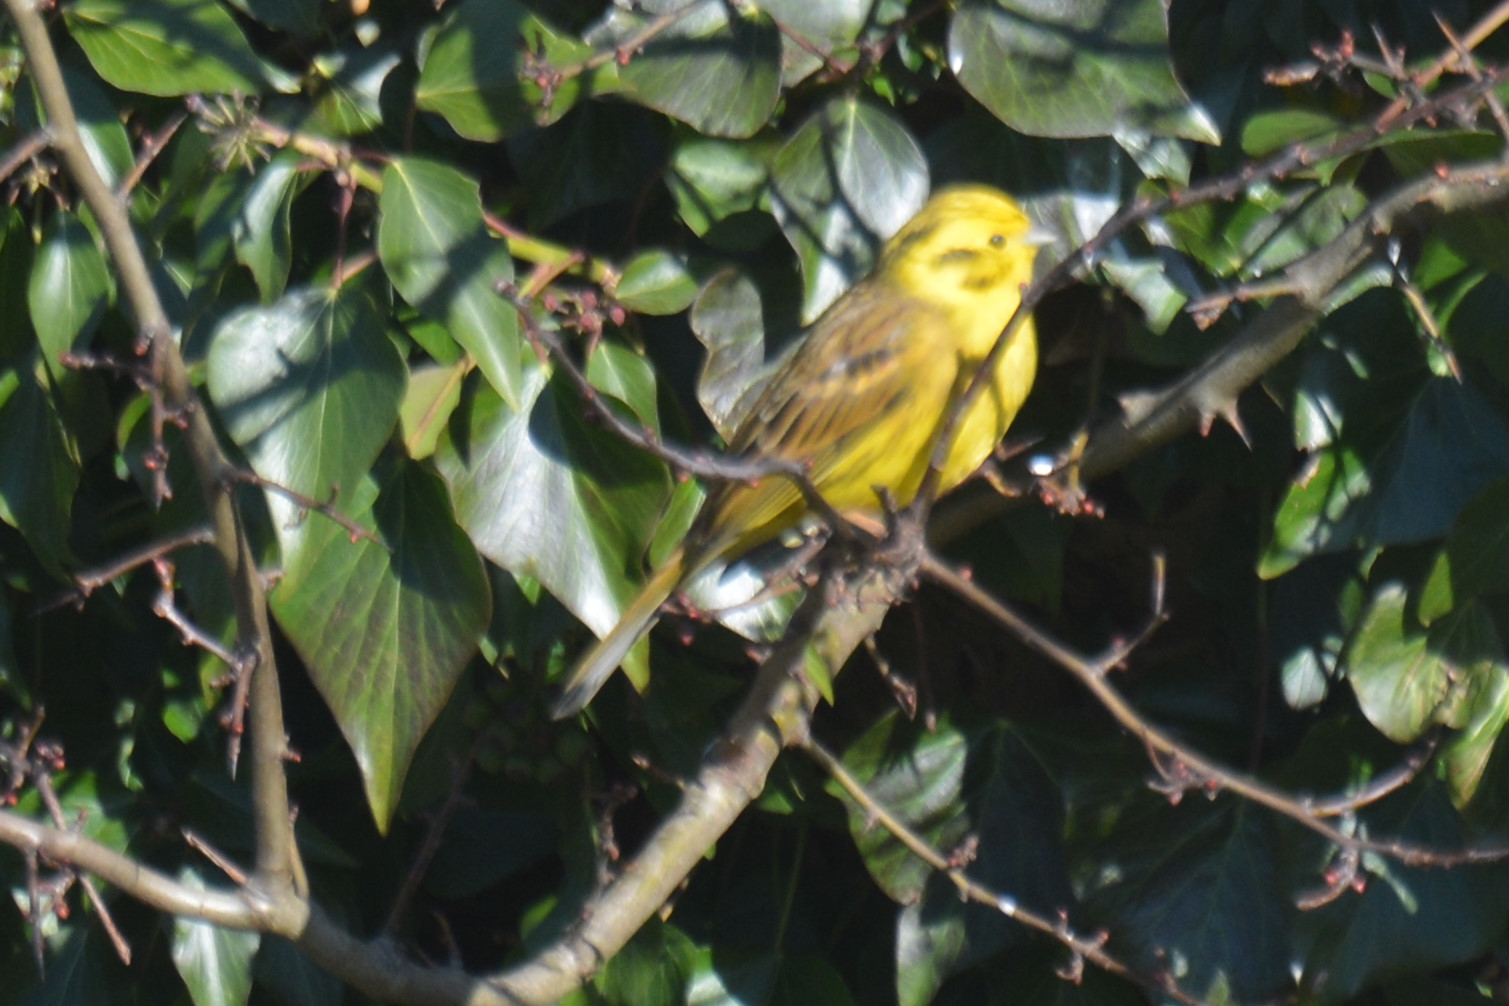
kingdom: Animalia
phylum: Chordata
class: Aves
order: Passeriformes
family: Emberizidae
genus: Emberiza
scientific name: Emberiza citrinella
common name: Yellowhammer
